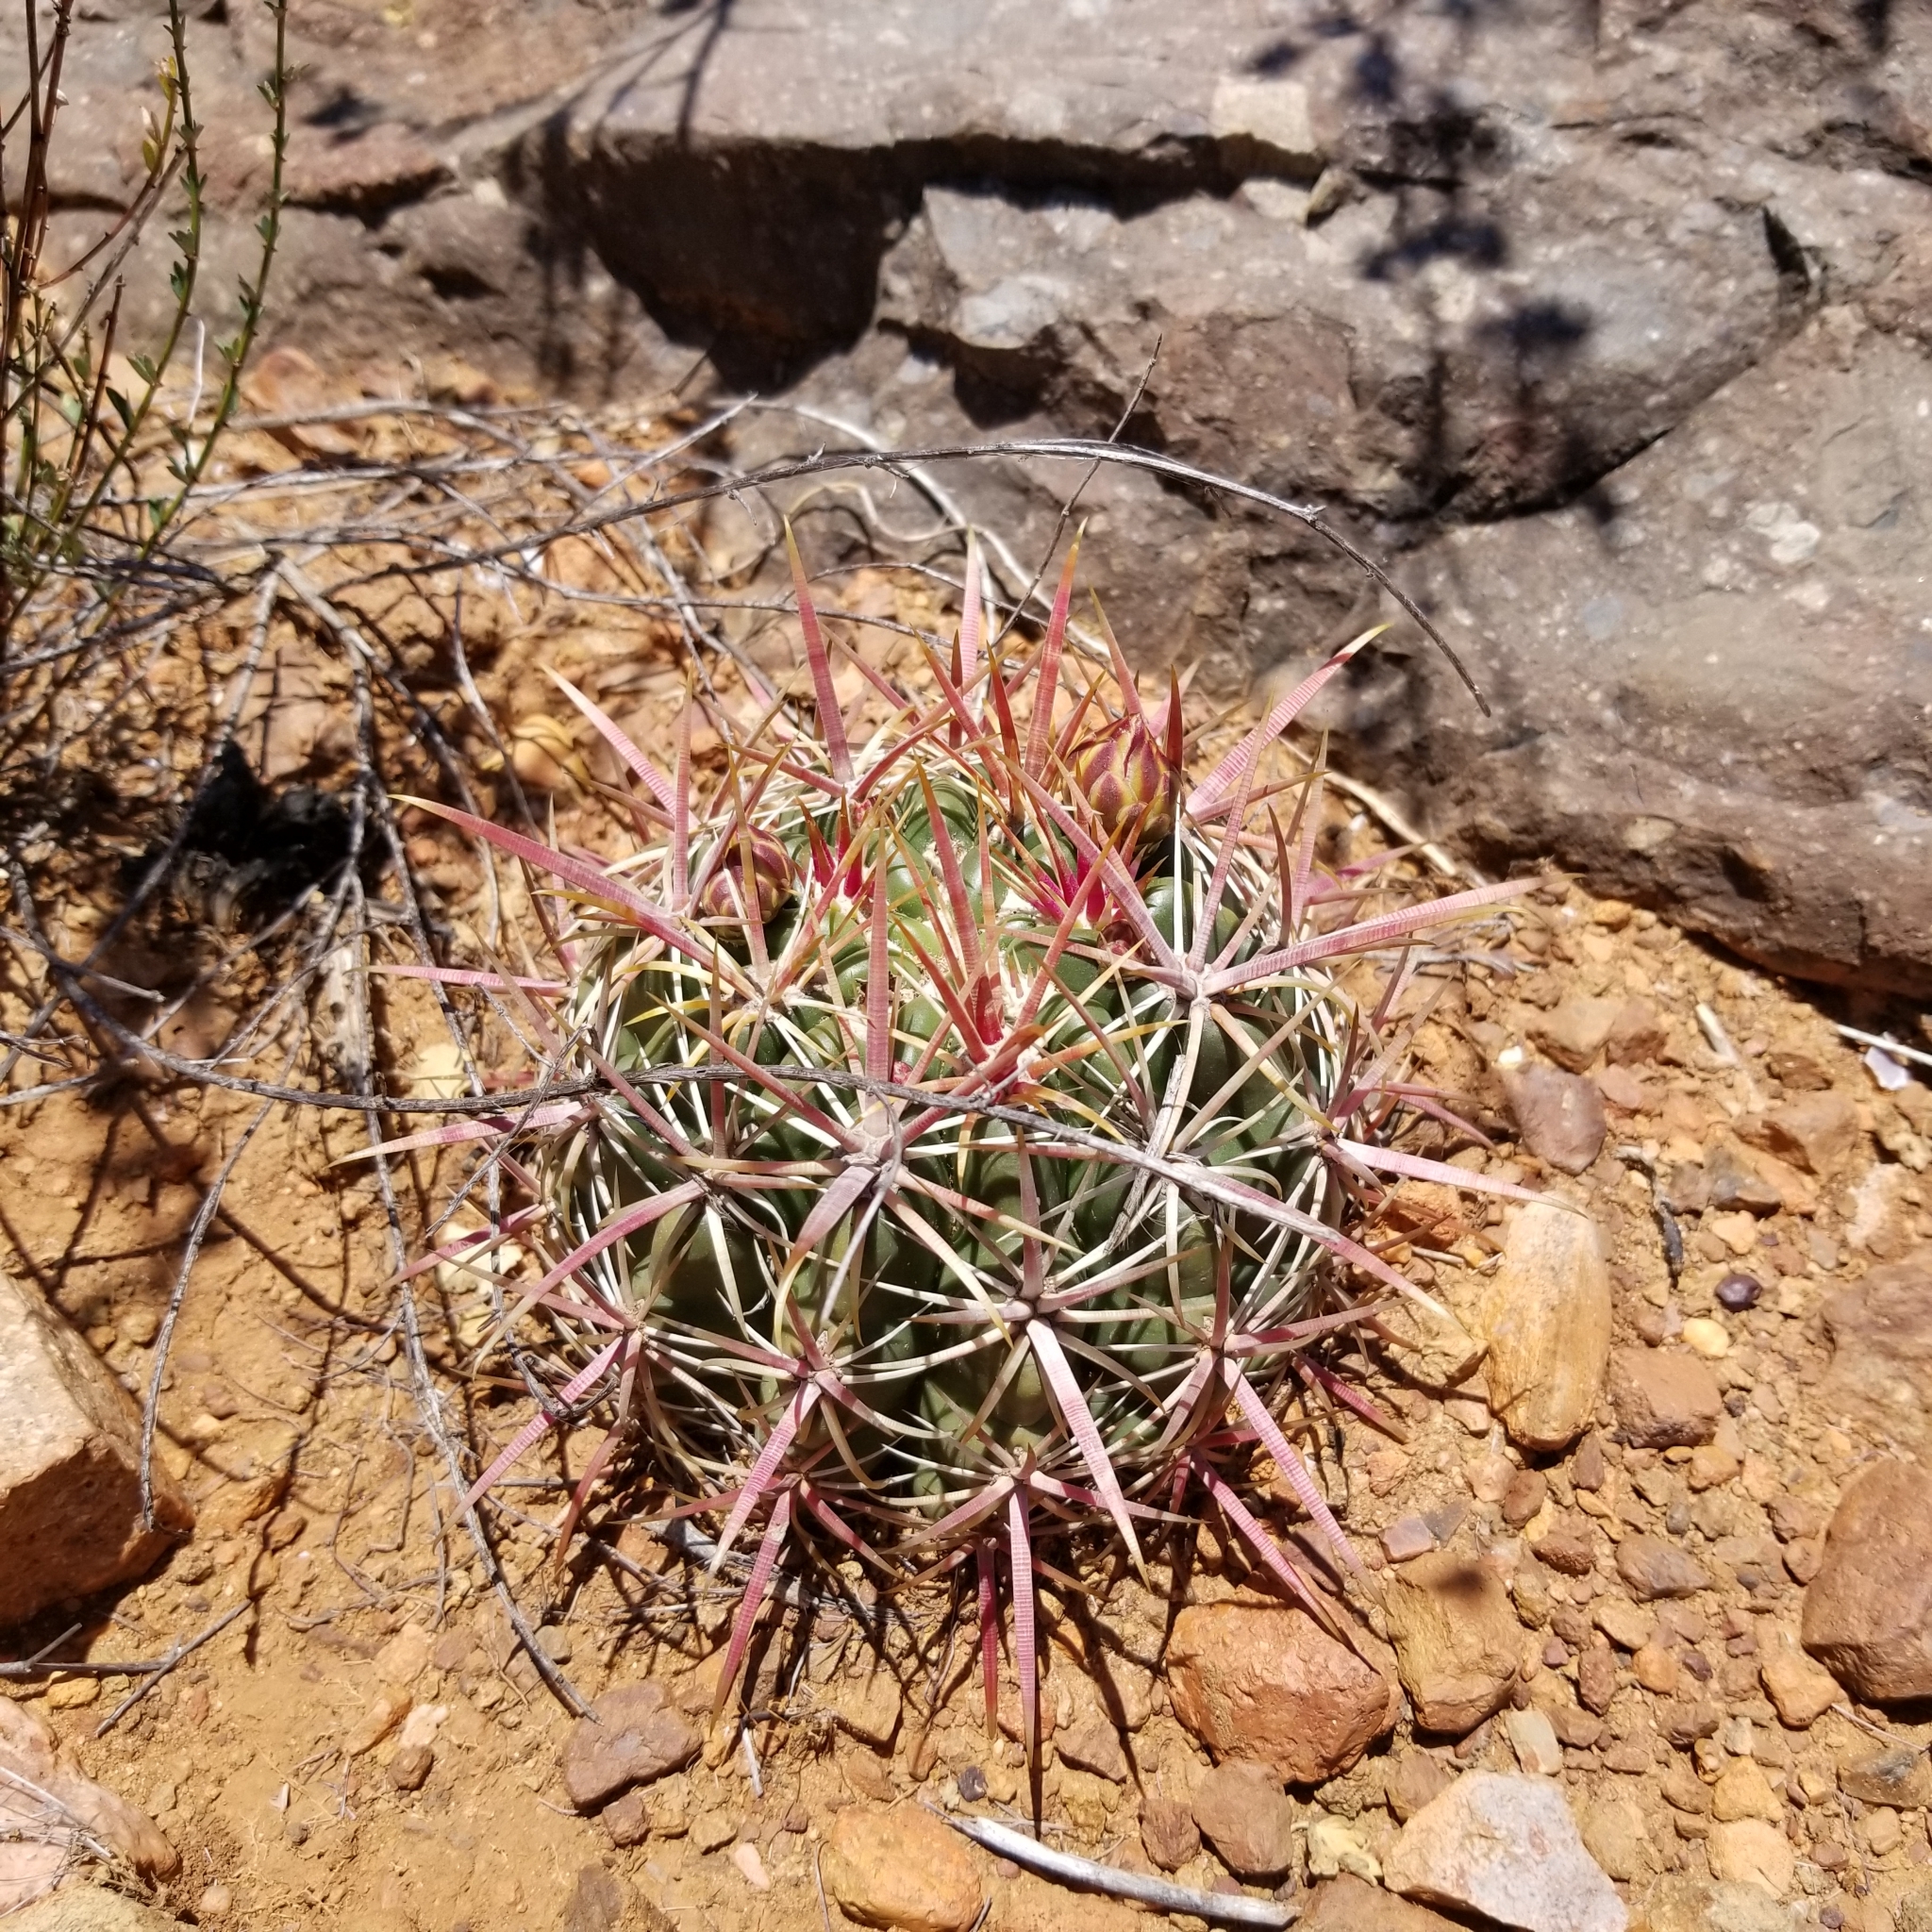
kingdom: Plantae
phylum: Tracheophyta
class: Magnoliopsida
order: Caryophyllales
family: Cactaceae
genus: Ferocactus
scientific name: Ferocactus viridescens
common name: San diego barrel cactus
